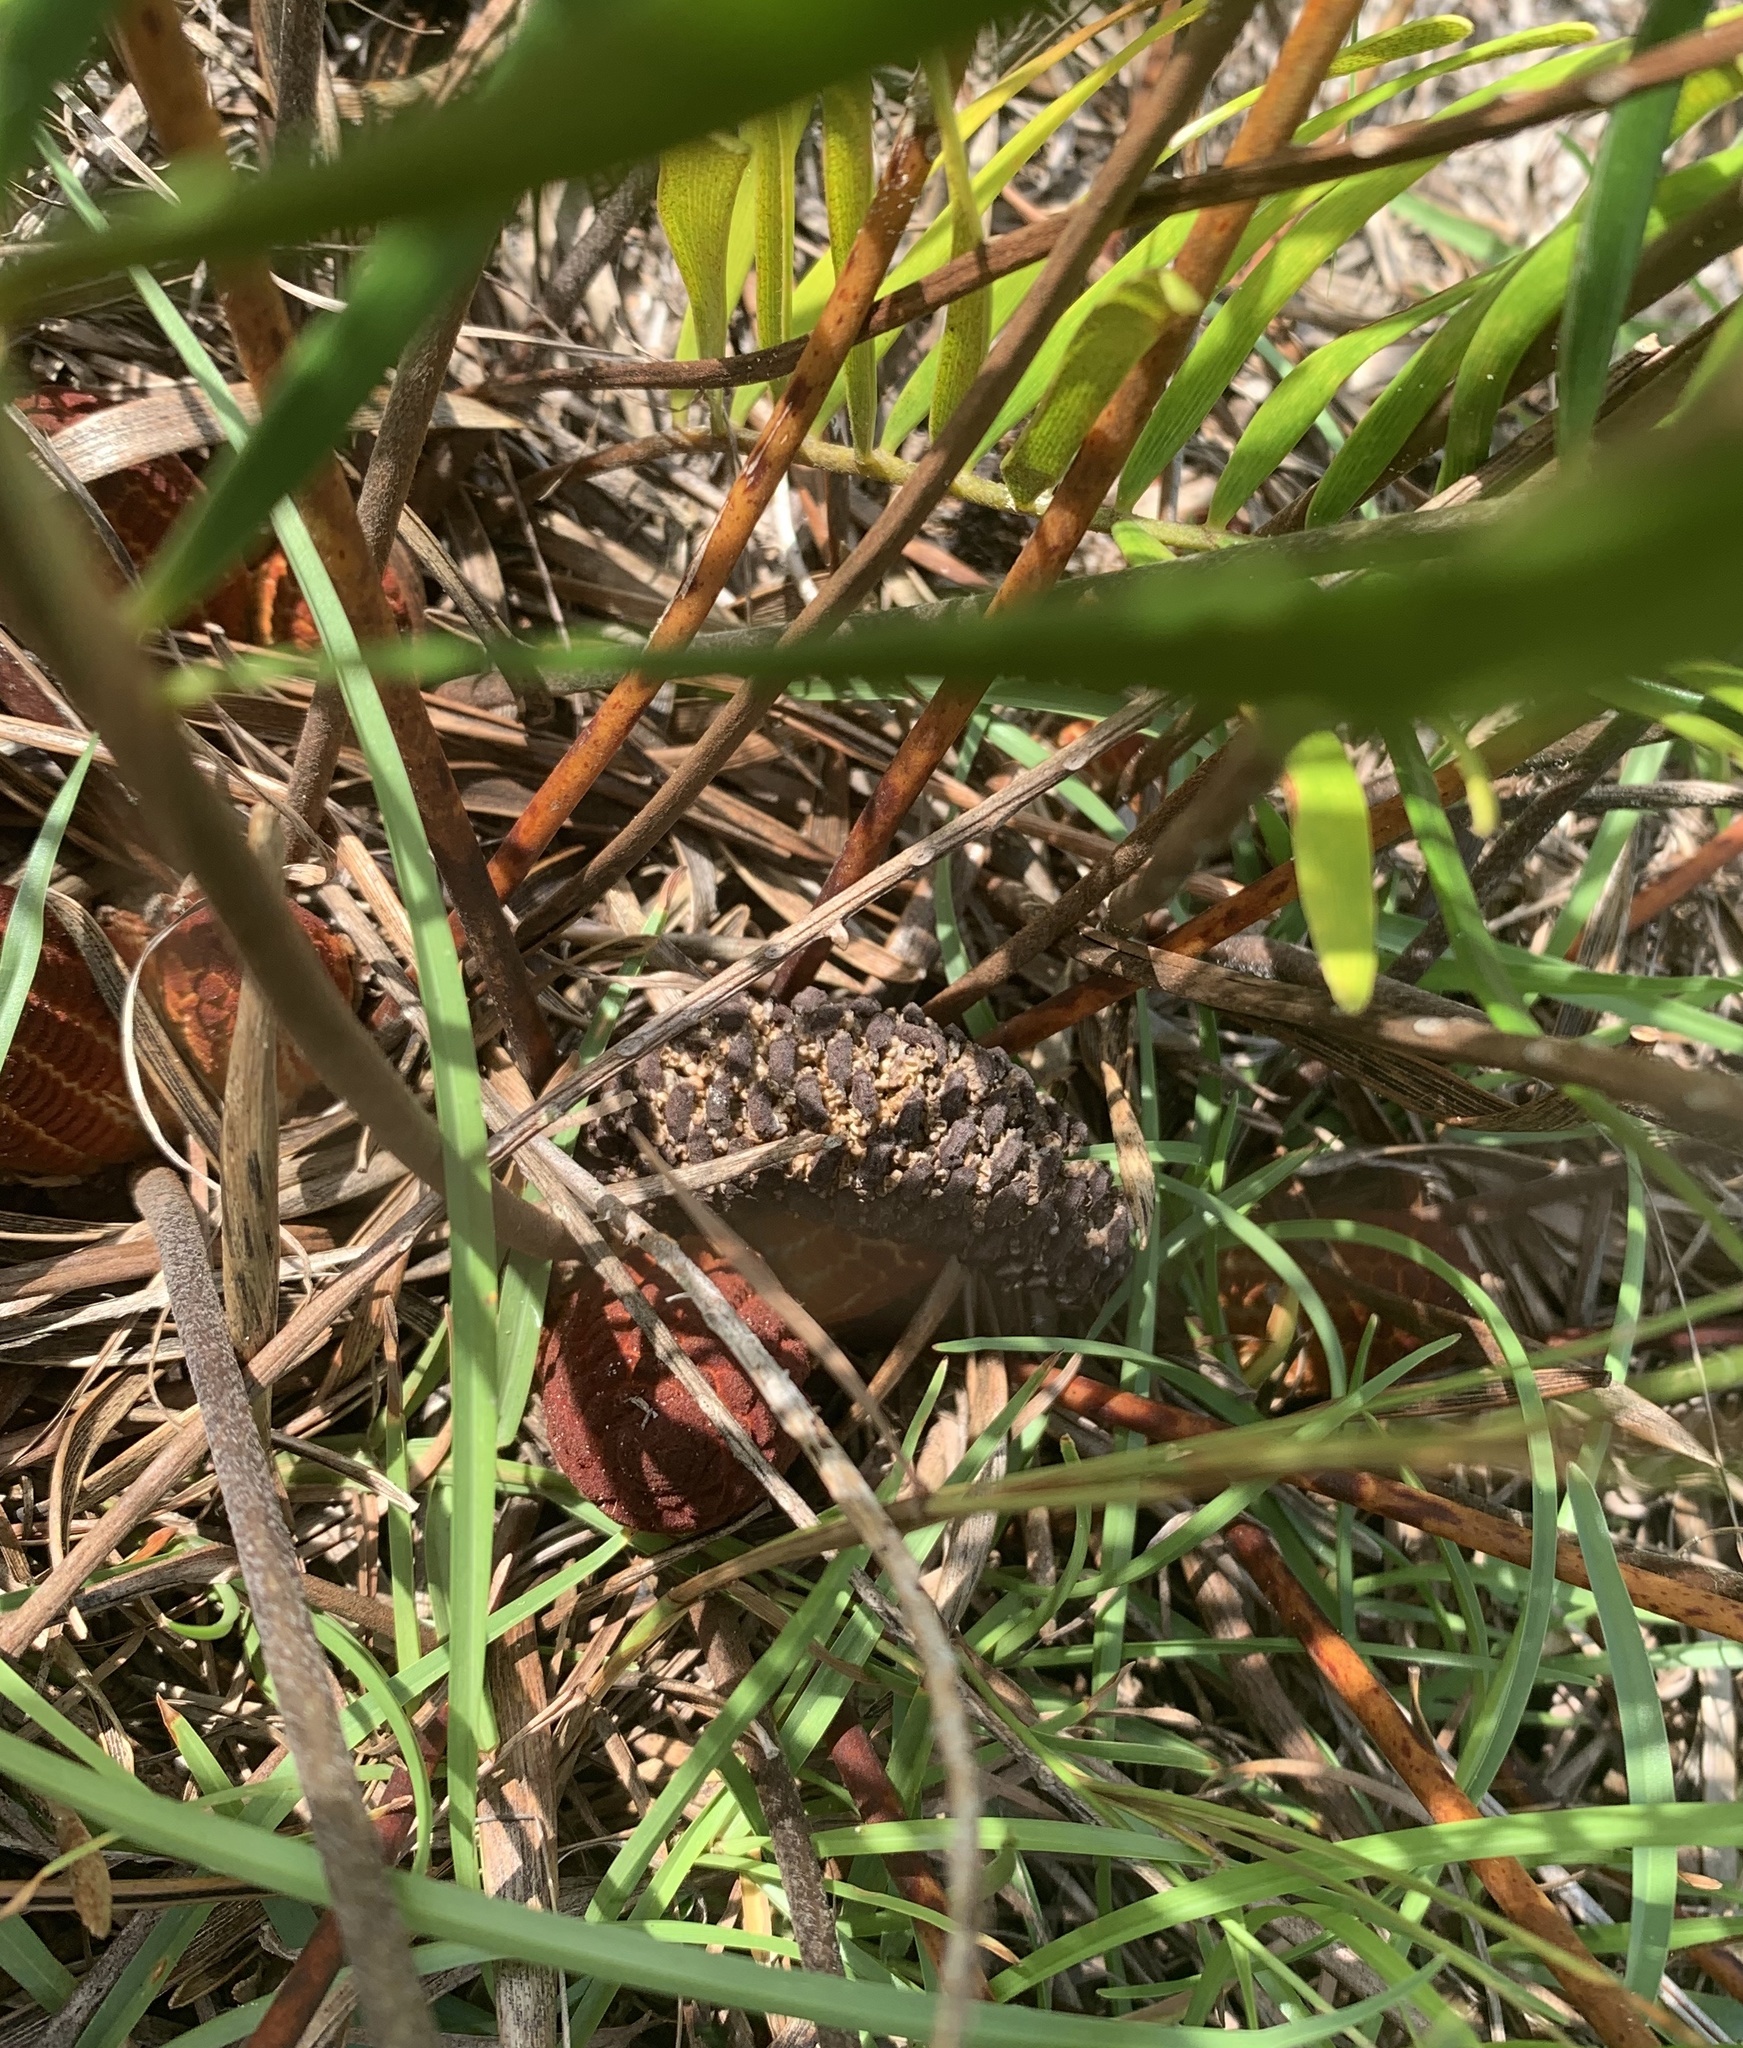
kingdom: Plantae
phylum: Tracheophyta
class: Cycadopsida
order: Cycadales
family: Zamiaceae
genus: Zamia
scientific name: Zamia integrifolia
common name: Florida arrowroot
